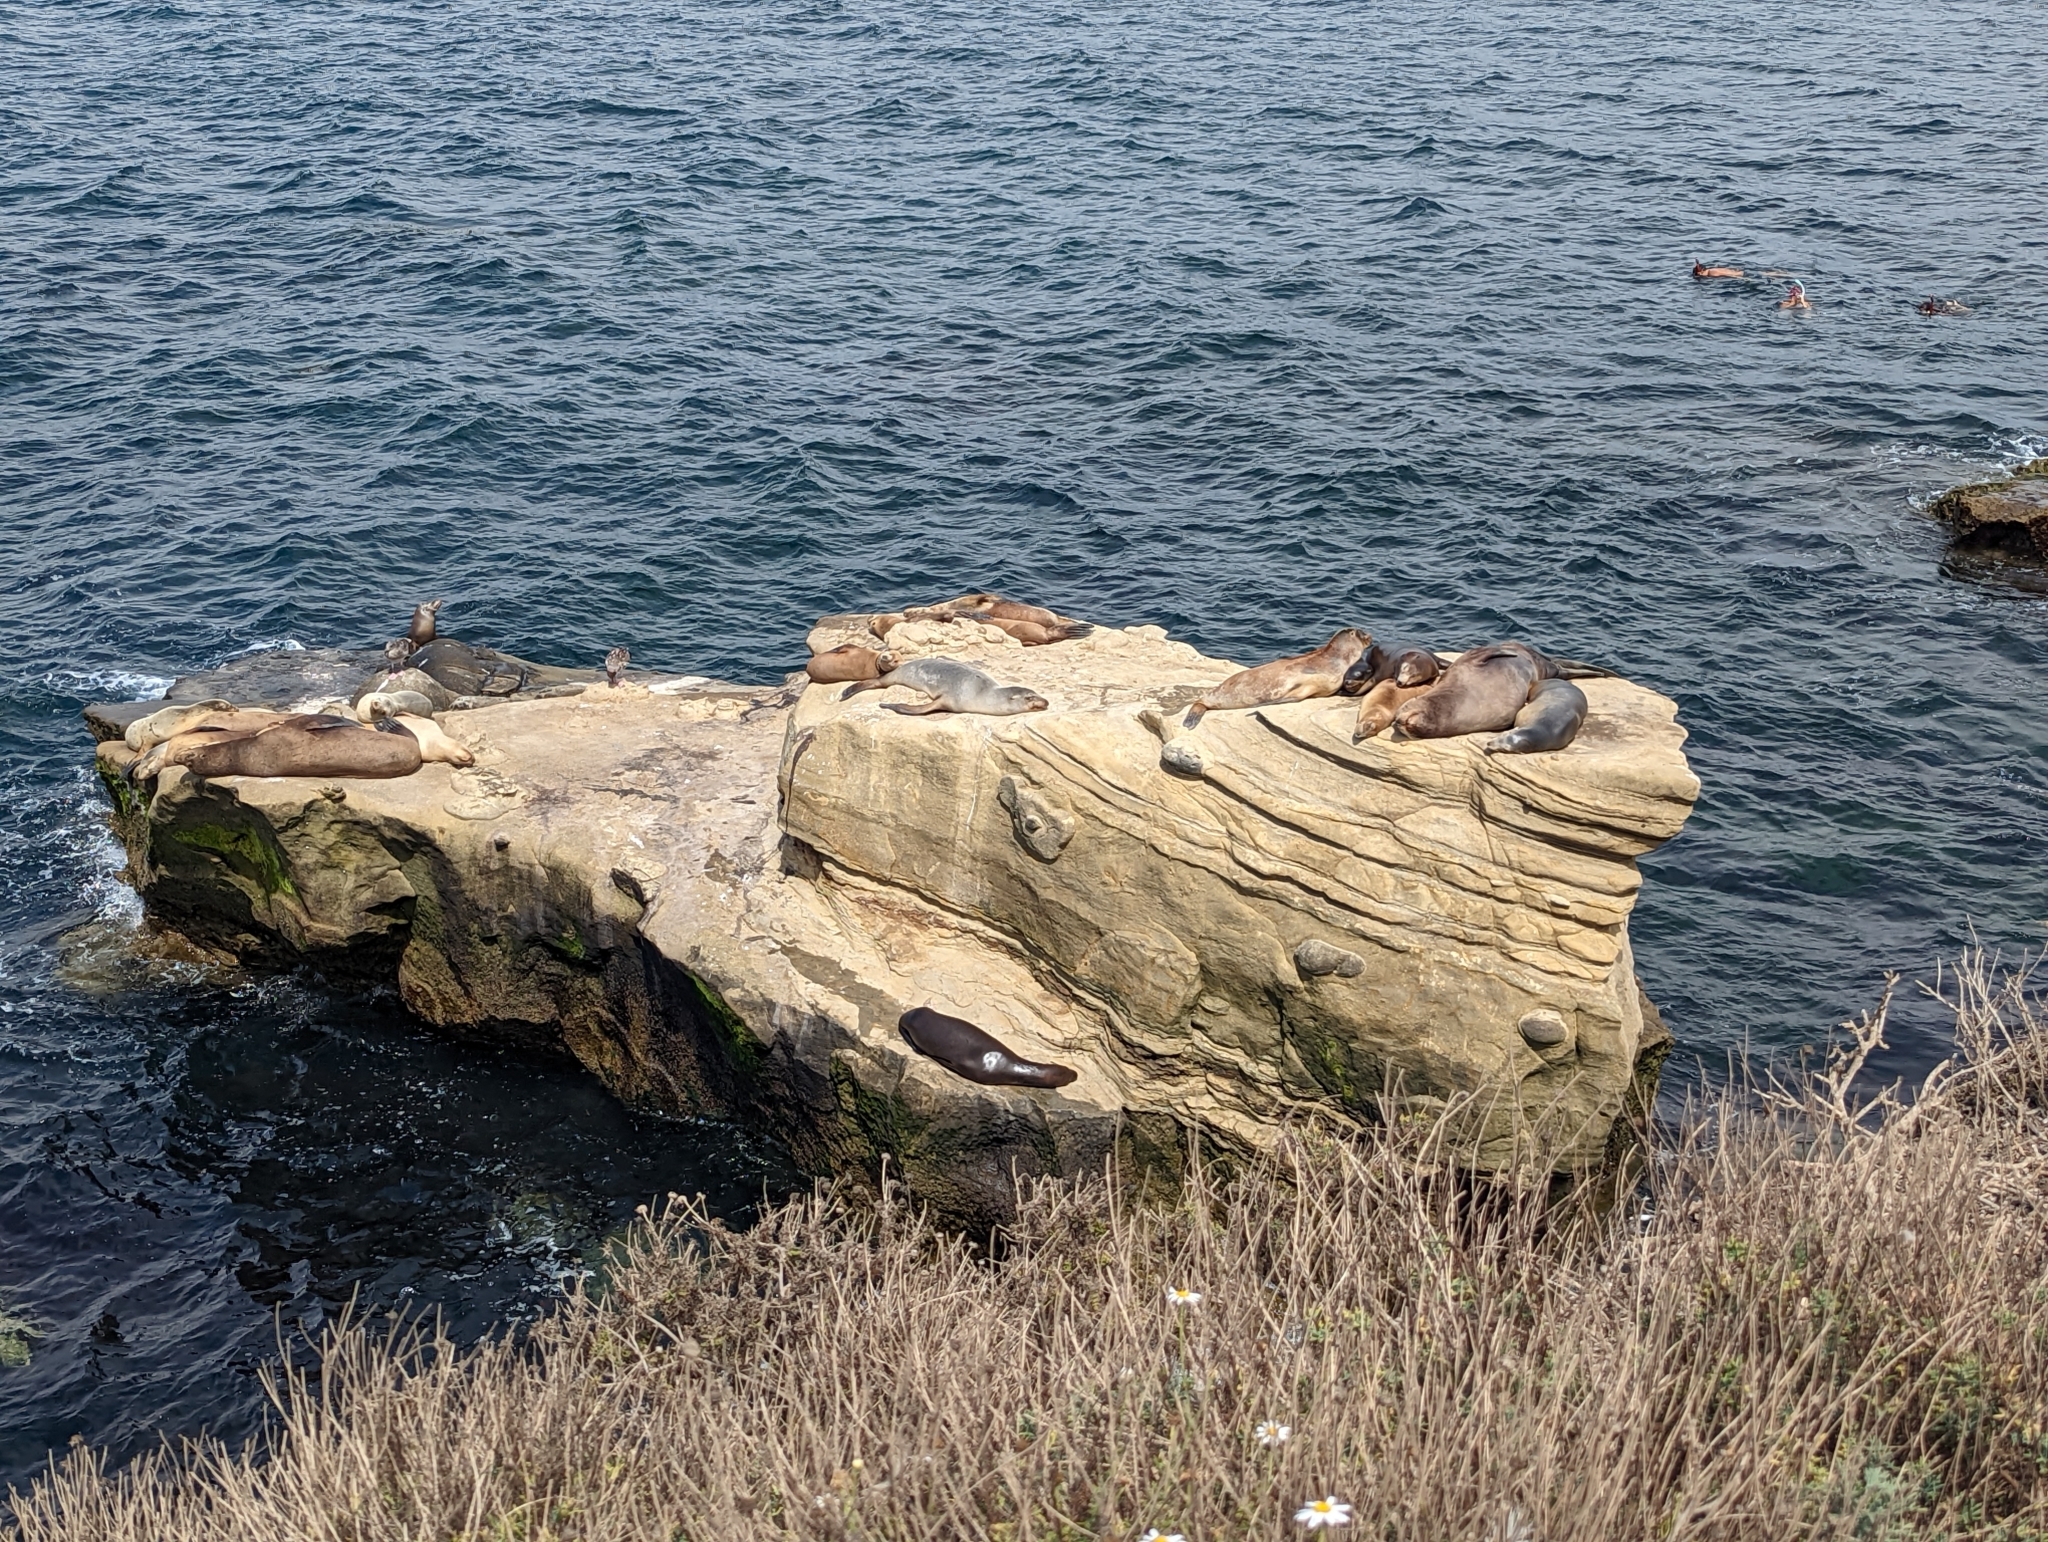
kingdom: Animalia
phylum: Chordata
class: Mammalia
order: Carnivora
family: Otariidae
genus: Zalophus
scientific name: Zalophus californianus
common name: California sea lion
